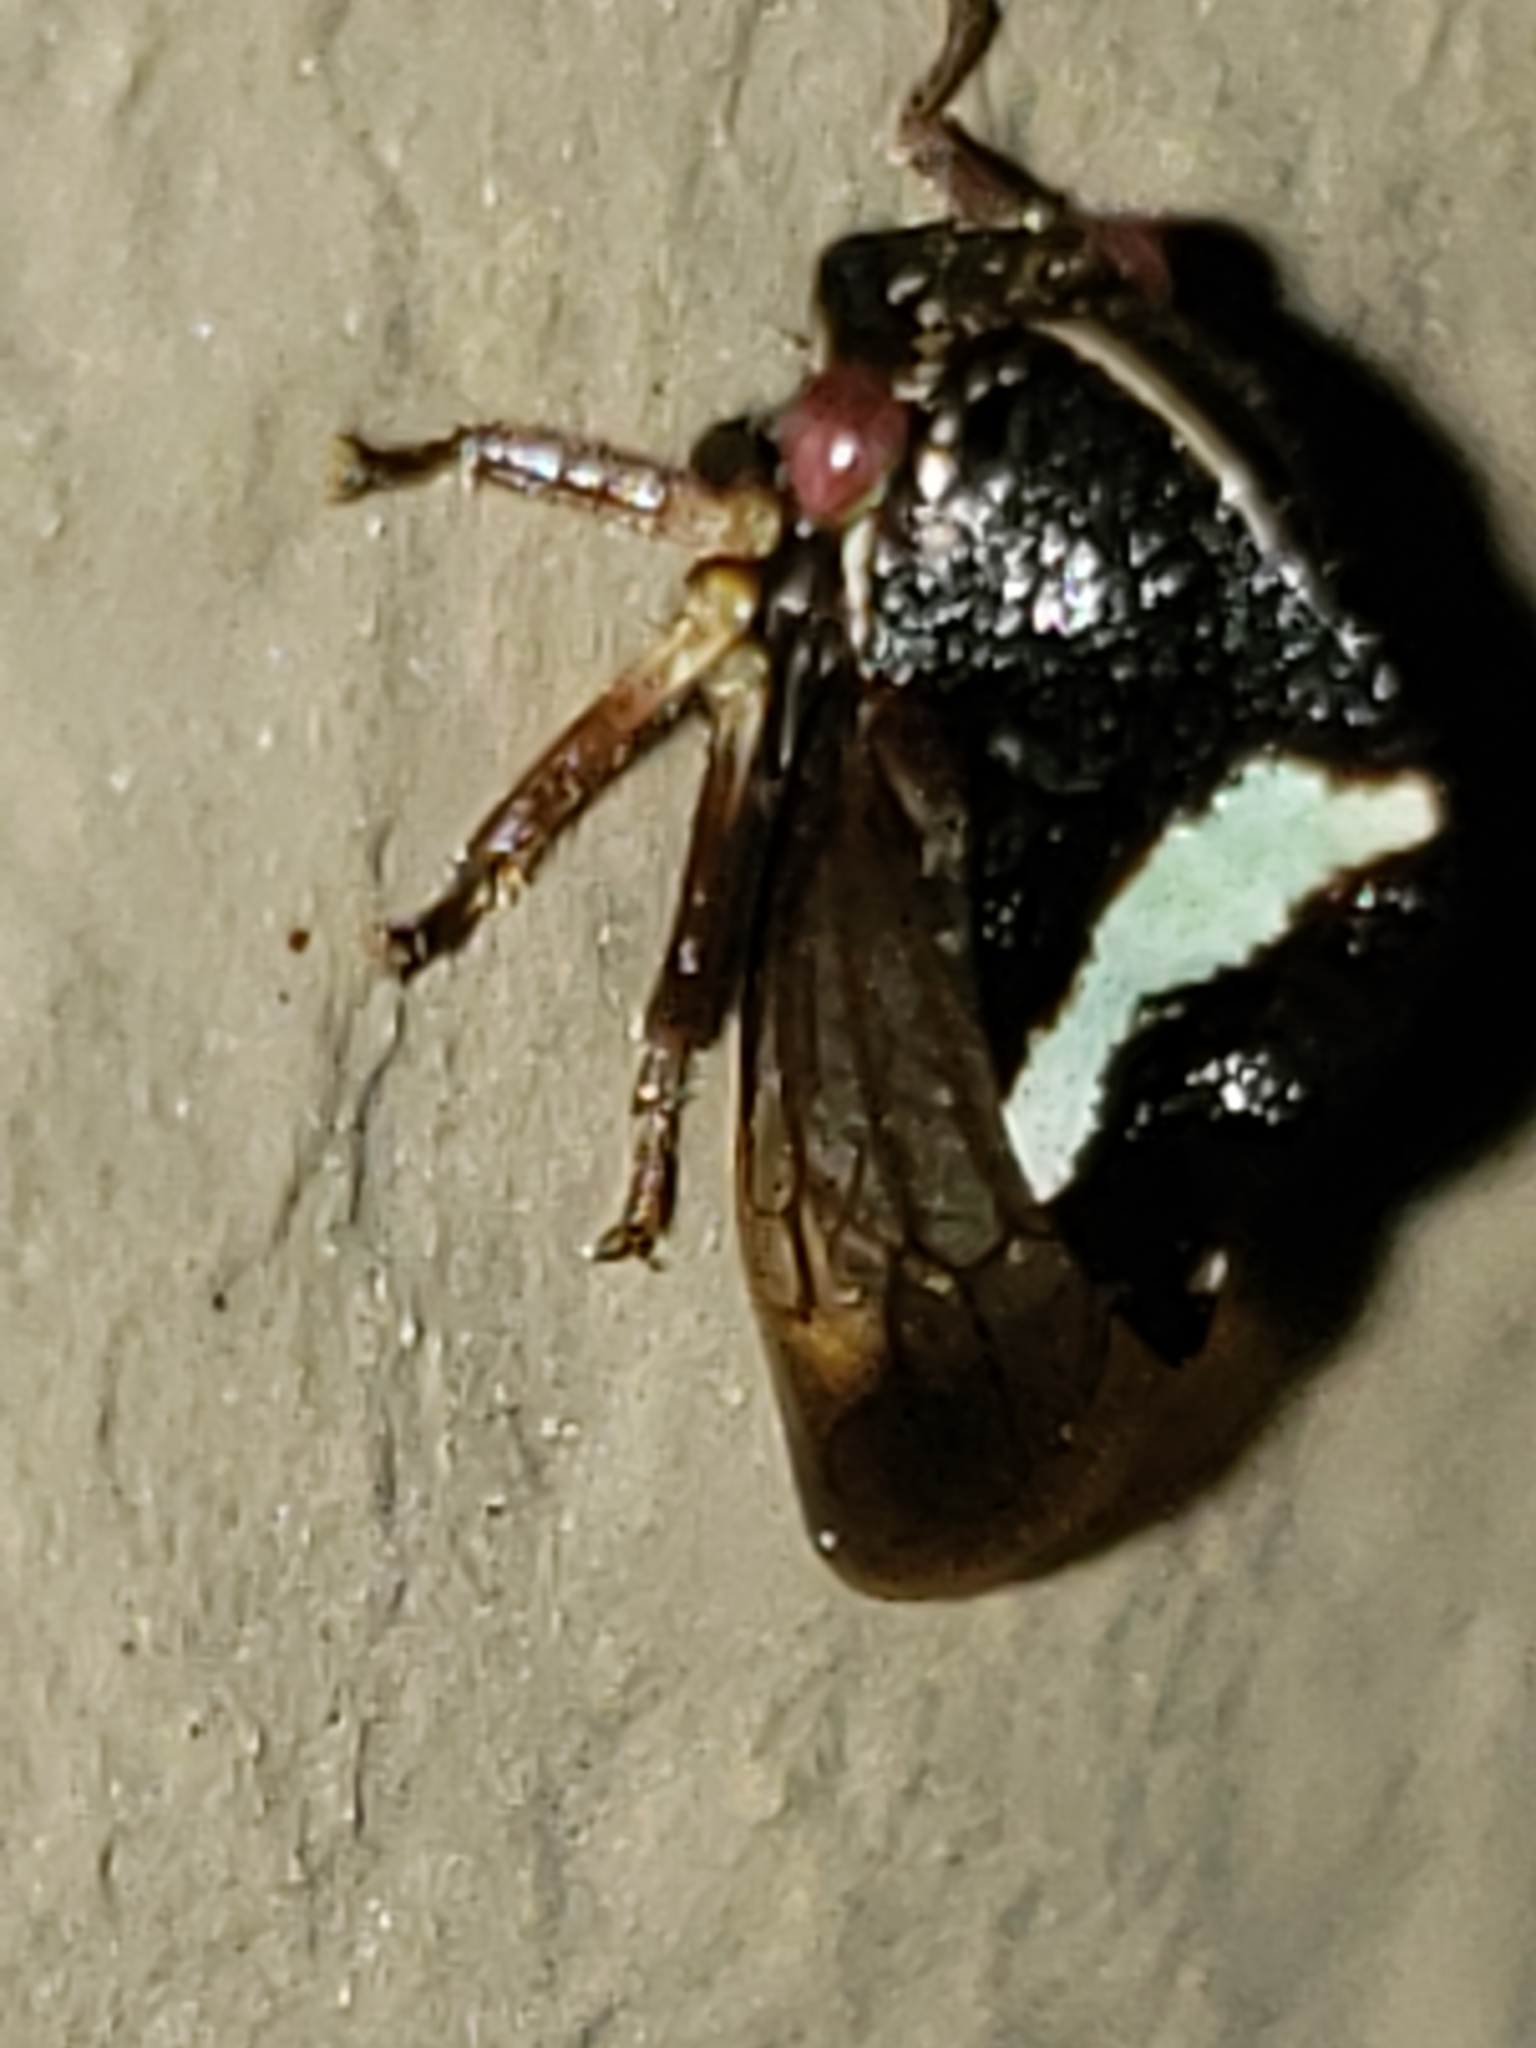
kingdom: Animalia
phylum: Arthropoda
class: Insecta
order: Hemiptera
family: Membracidae
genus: Smilia
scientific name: Smilia fasciata
